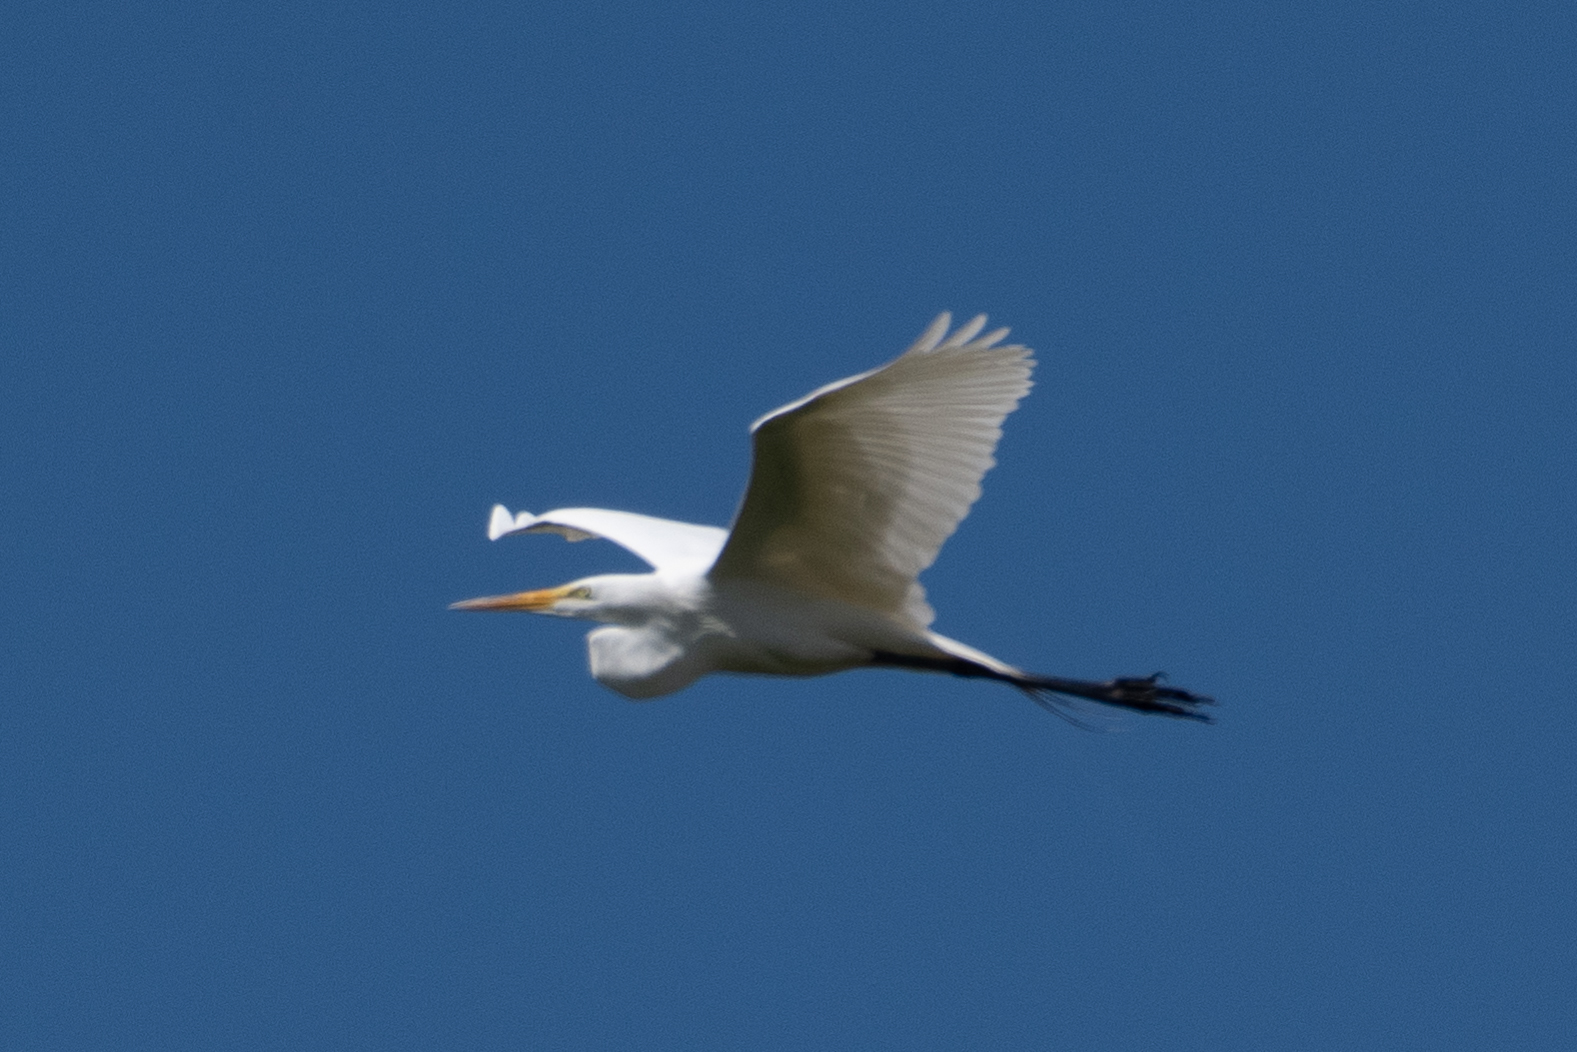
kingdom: Animalia
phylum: Chordata
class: Aves
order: Pelecaniformes
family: Ardeidae
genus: Ardea
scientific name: Ardea alba
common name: Great egret
